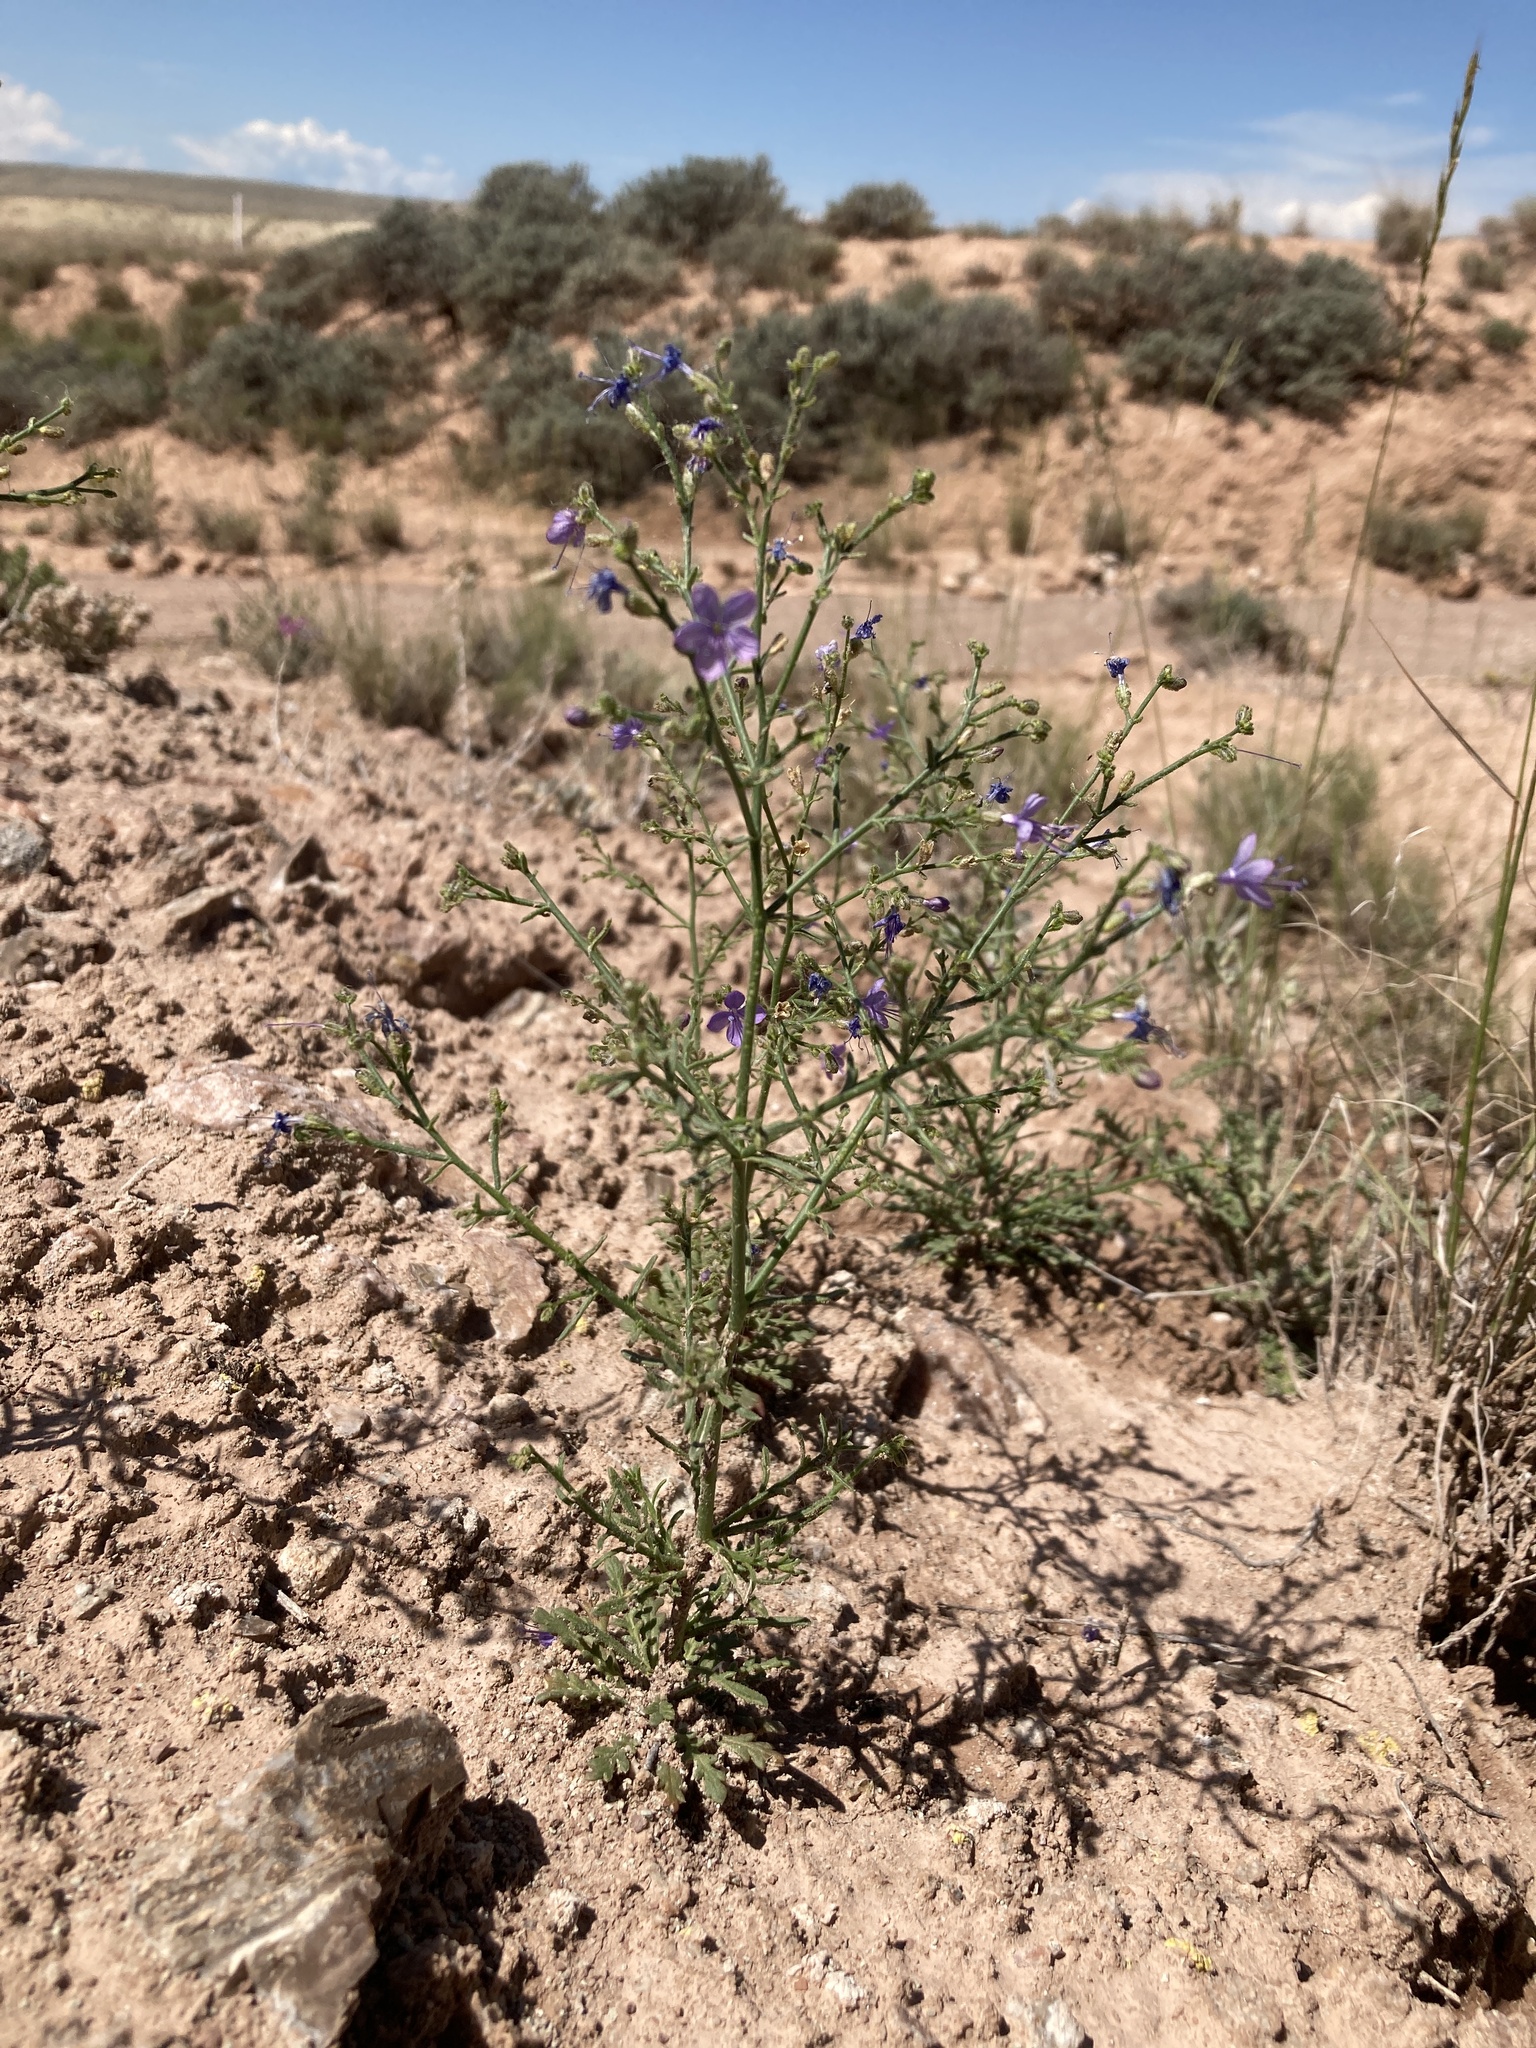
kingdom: Plantae
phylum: Tracheophyta
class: Magnoliopsida
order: Ericales
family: Polemoniaceae
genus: Aliciella
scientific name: Aliciella pinnatifida
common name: Sticky gilia
